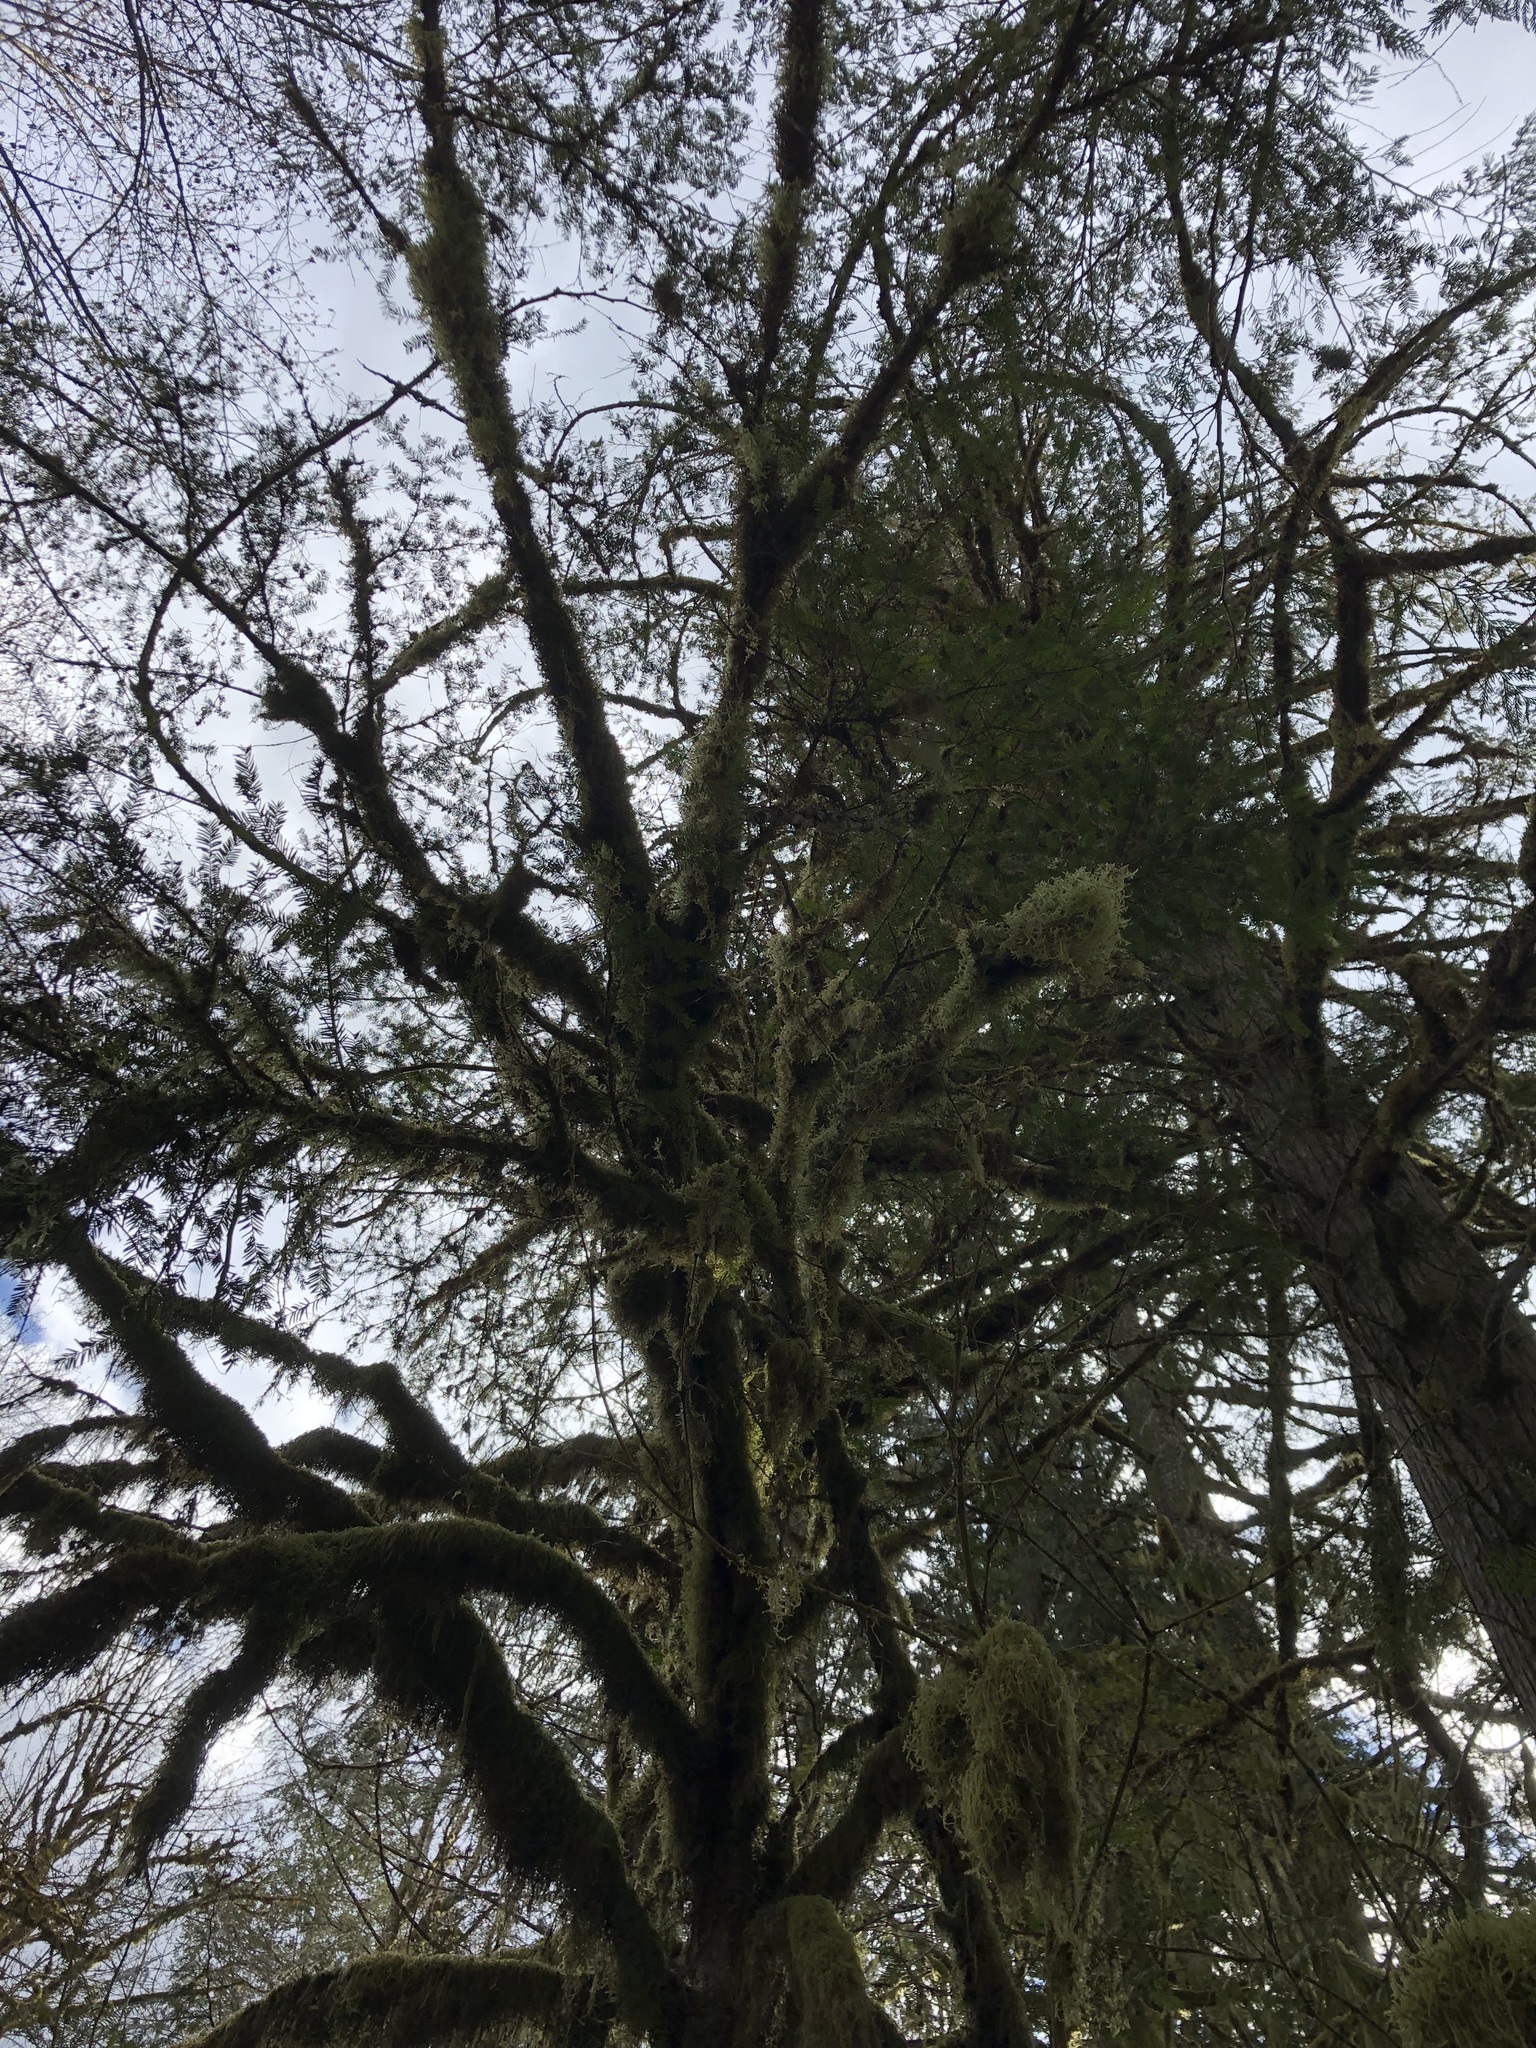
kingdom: Plantae
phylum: Tracheophyta
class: Pinopsida
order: Pinales
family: Taxaceae
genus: Taxus
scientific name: Taxus brevifolia
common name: Pacific yew
